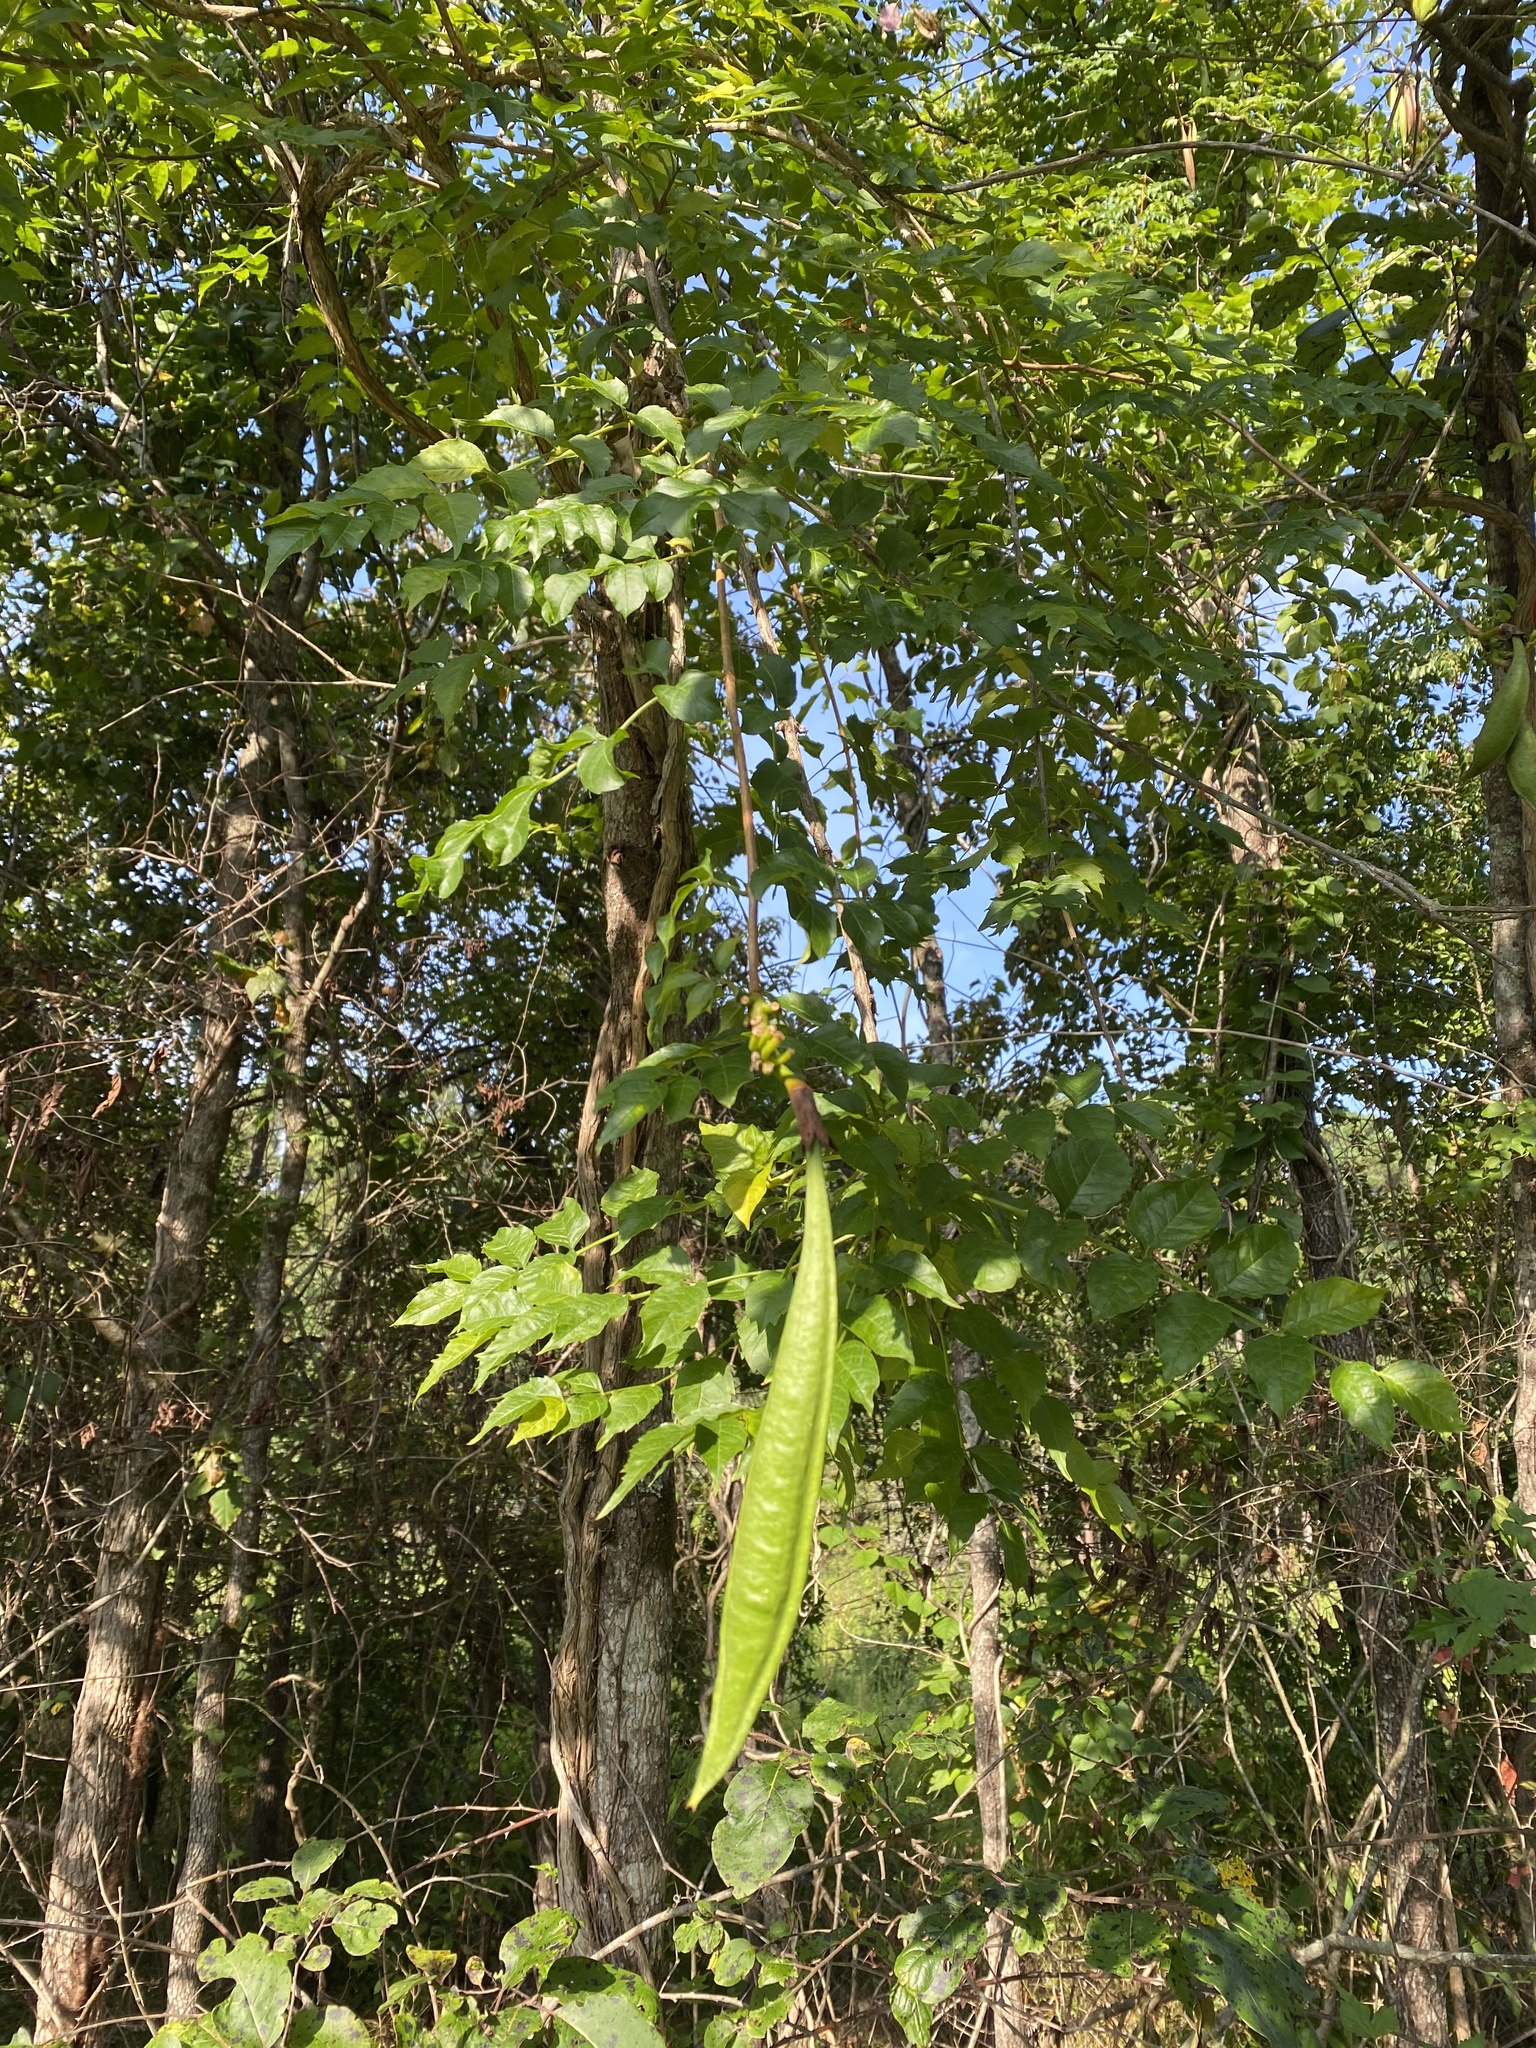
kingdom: Plantae
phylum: Tracheophyta
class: Magnoliopsida
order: Lamiales
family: Bignoniaceae
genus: Campsis
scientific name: Campsis radicans
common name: Trumpet-creeper
